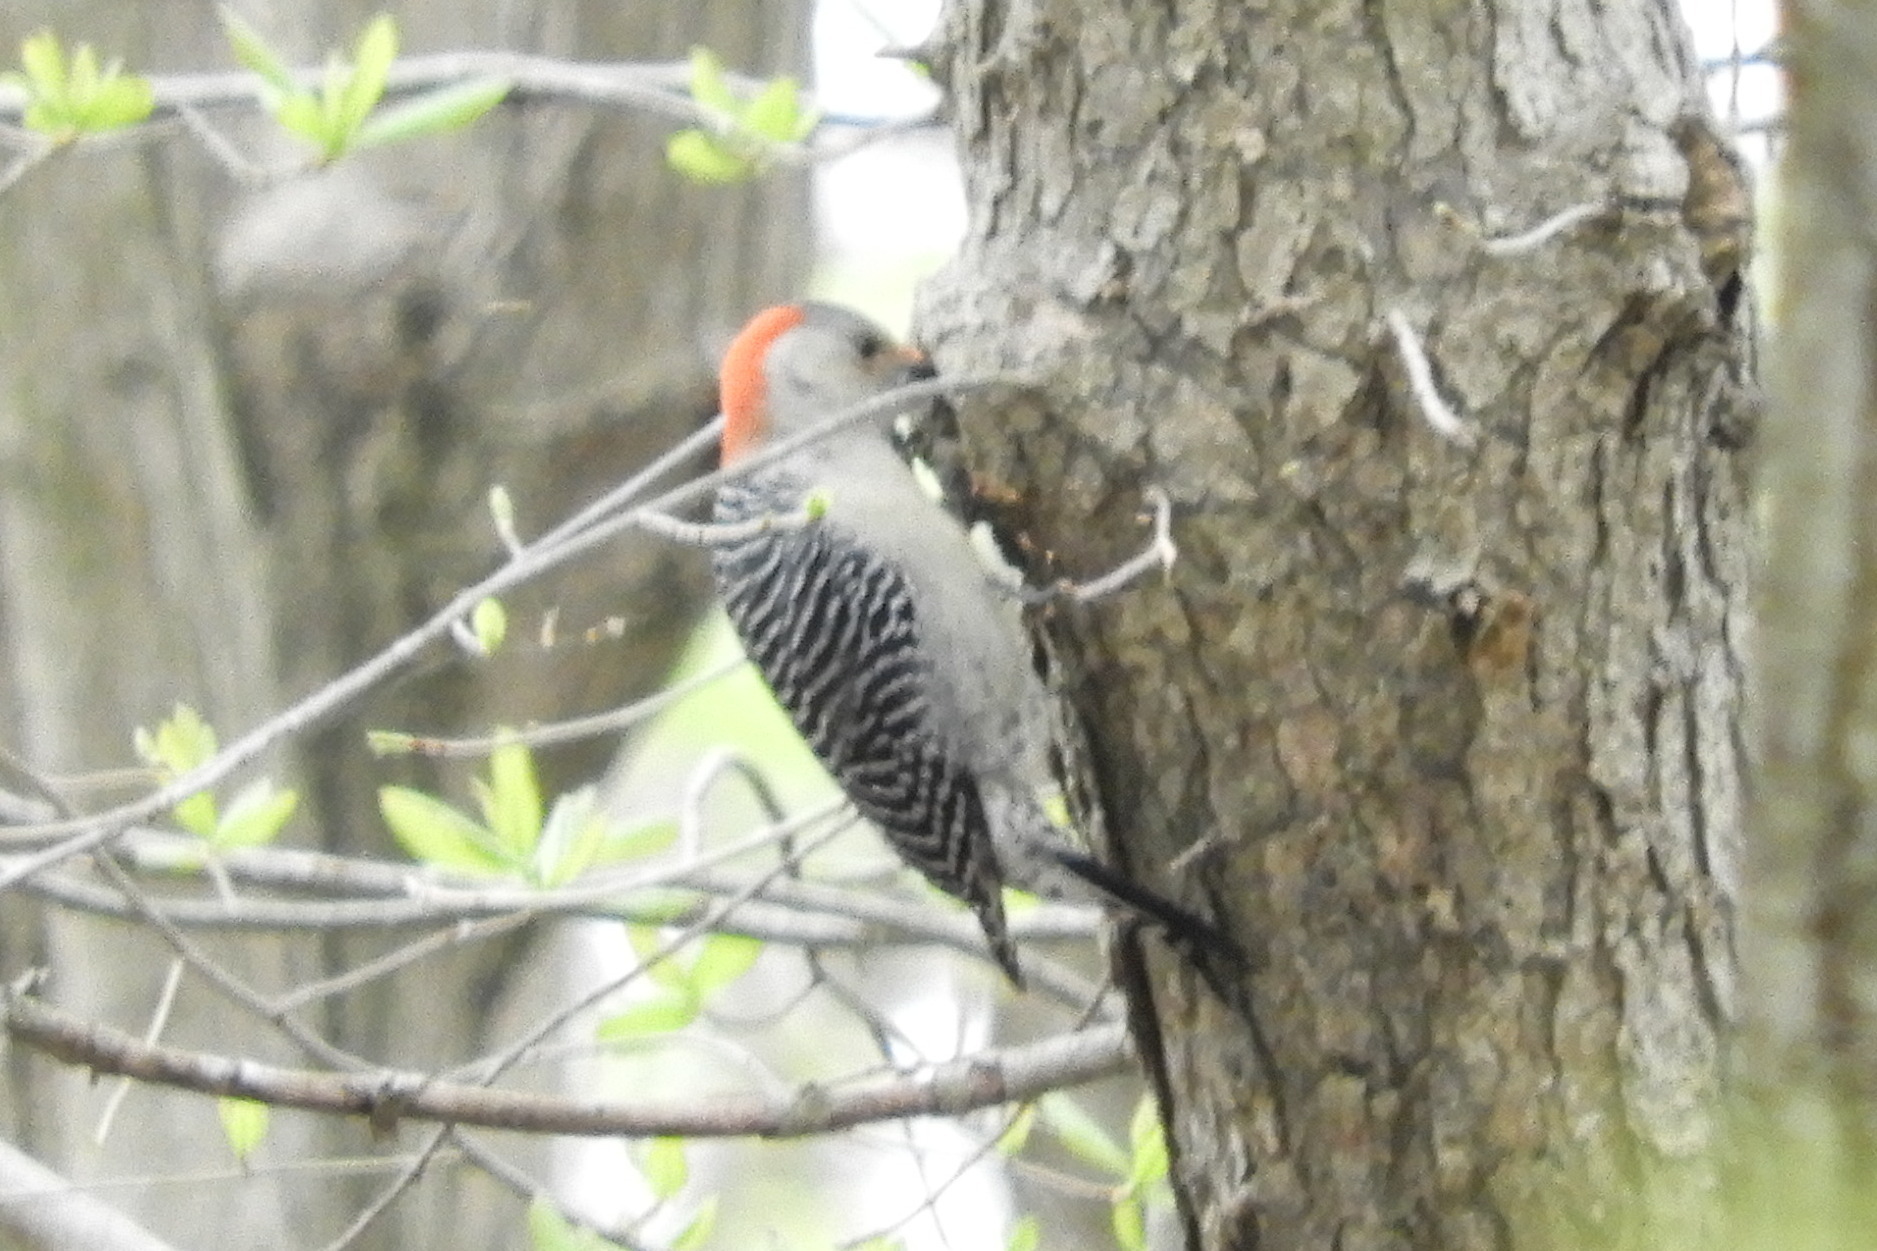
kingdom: Animalia
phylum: Chordata
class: Aves
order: Piciformes
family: Picidae
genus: Melanerpes
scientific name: Melanerpes carolinus
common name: Red-bellied woodpecker
